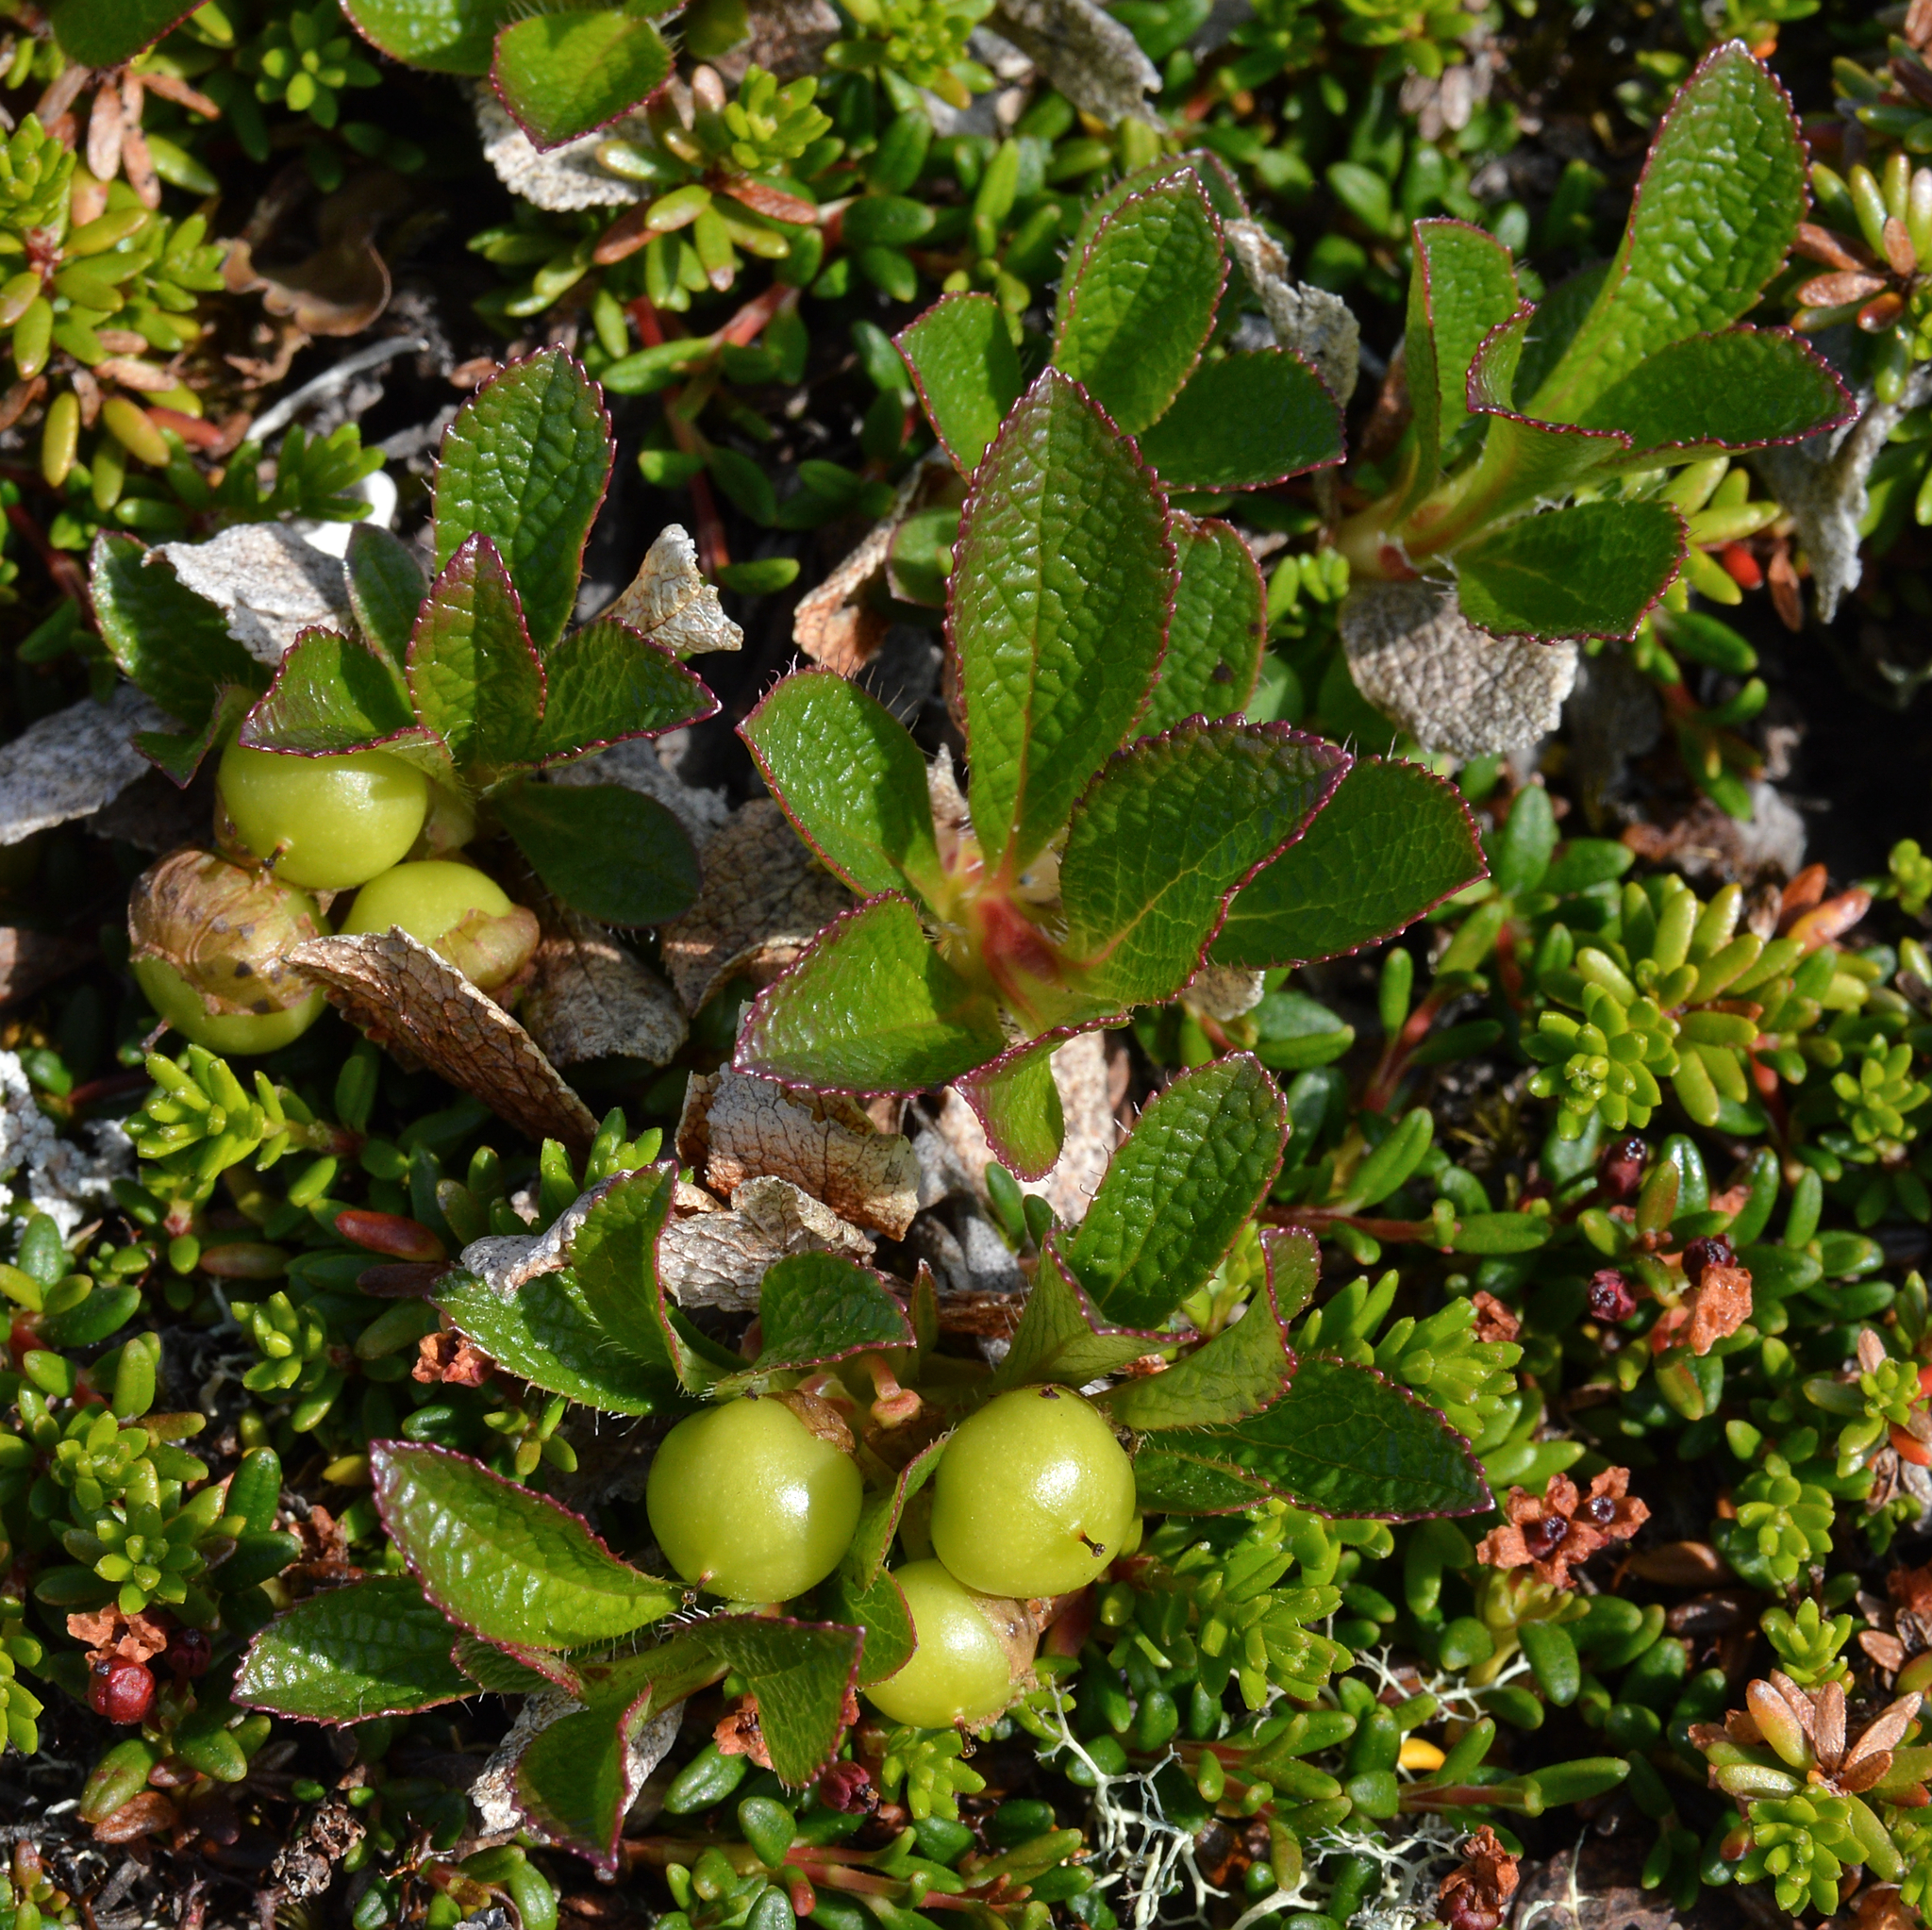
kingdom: Plantae
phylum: Tracheophyta
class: Magnoliopsida
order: Ericales
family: Ericaceae
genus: Arctostaphylos
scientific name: Arctostaphylos alpinus
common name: Alpine bearberry
